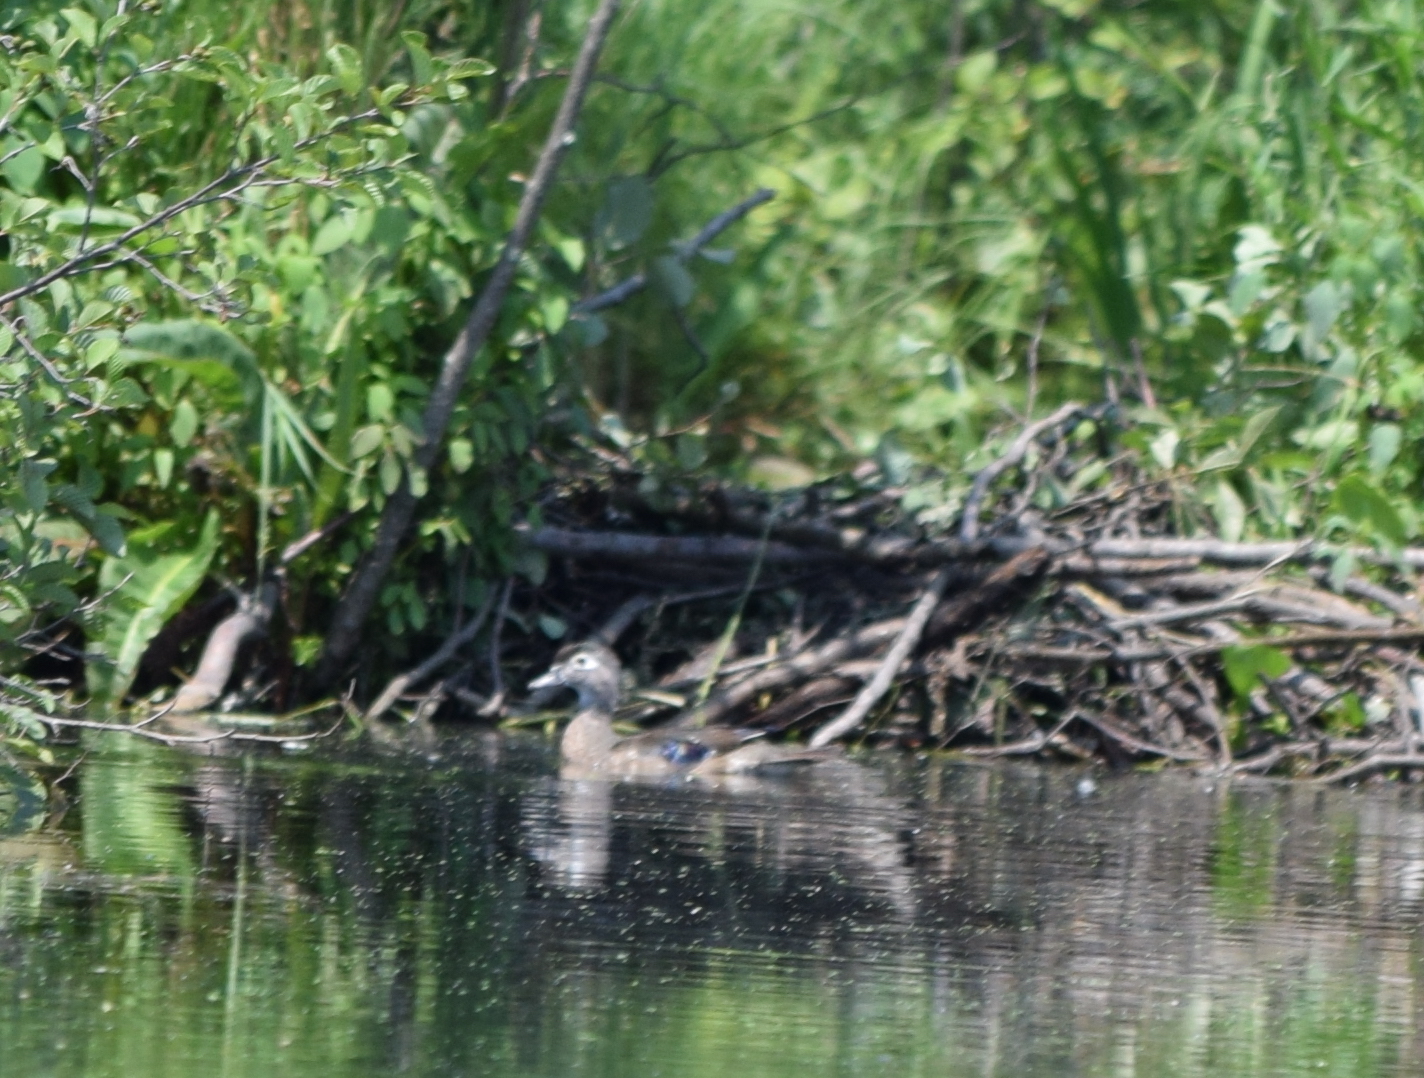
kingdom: Animalia
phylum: Chordata
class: Aves
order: Anseriformes
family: Anatidae
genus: Aix
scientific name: Aix sponsa
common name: Wood duck
